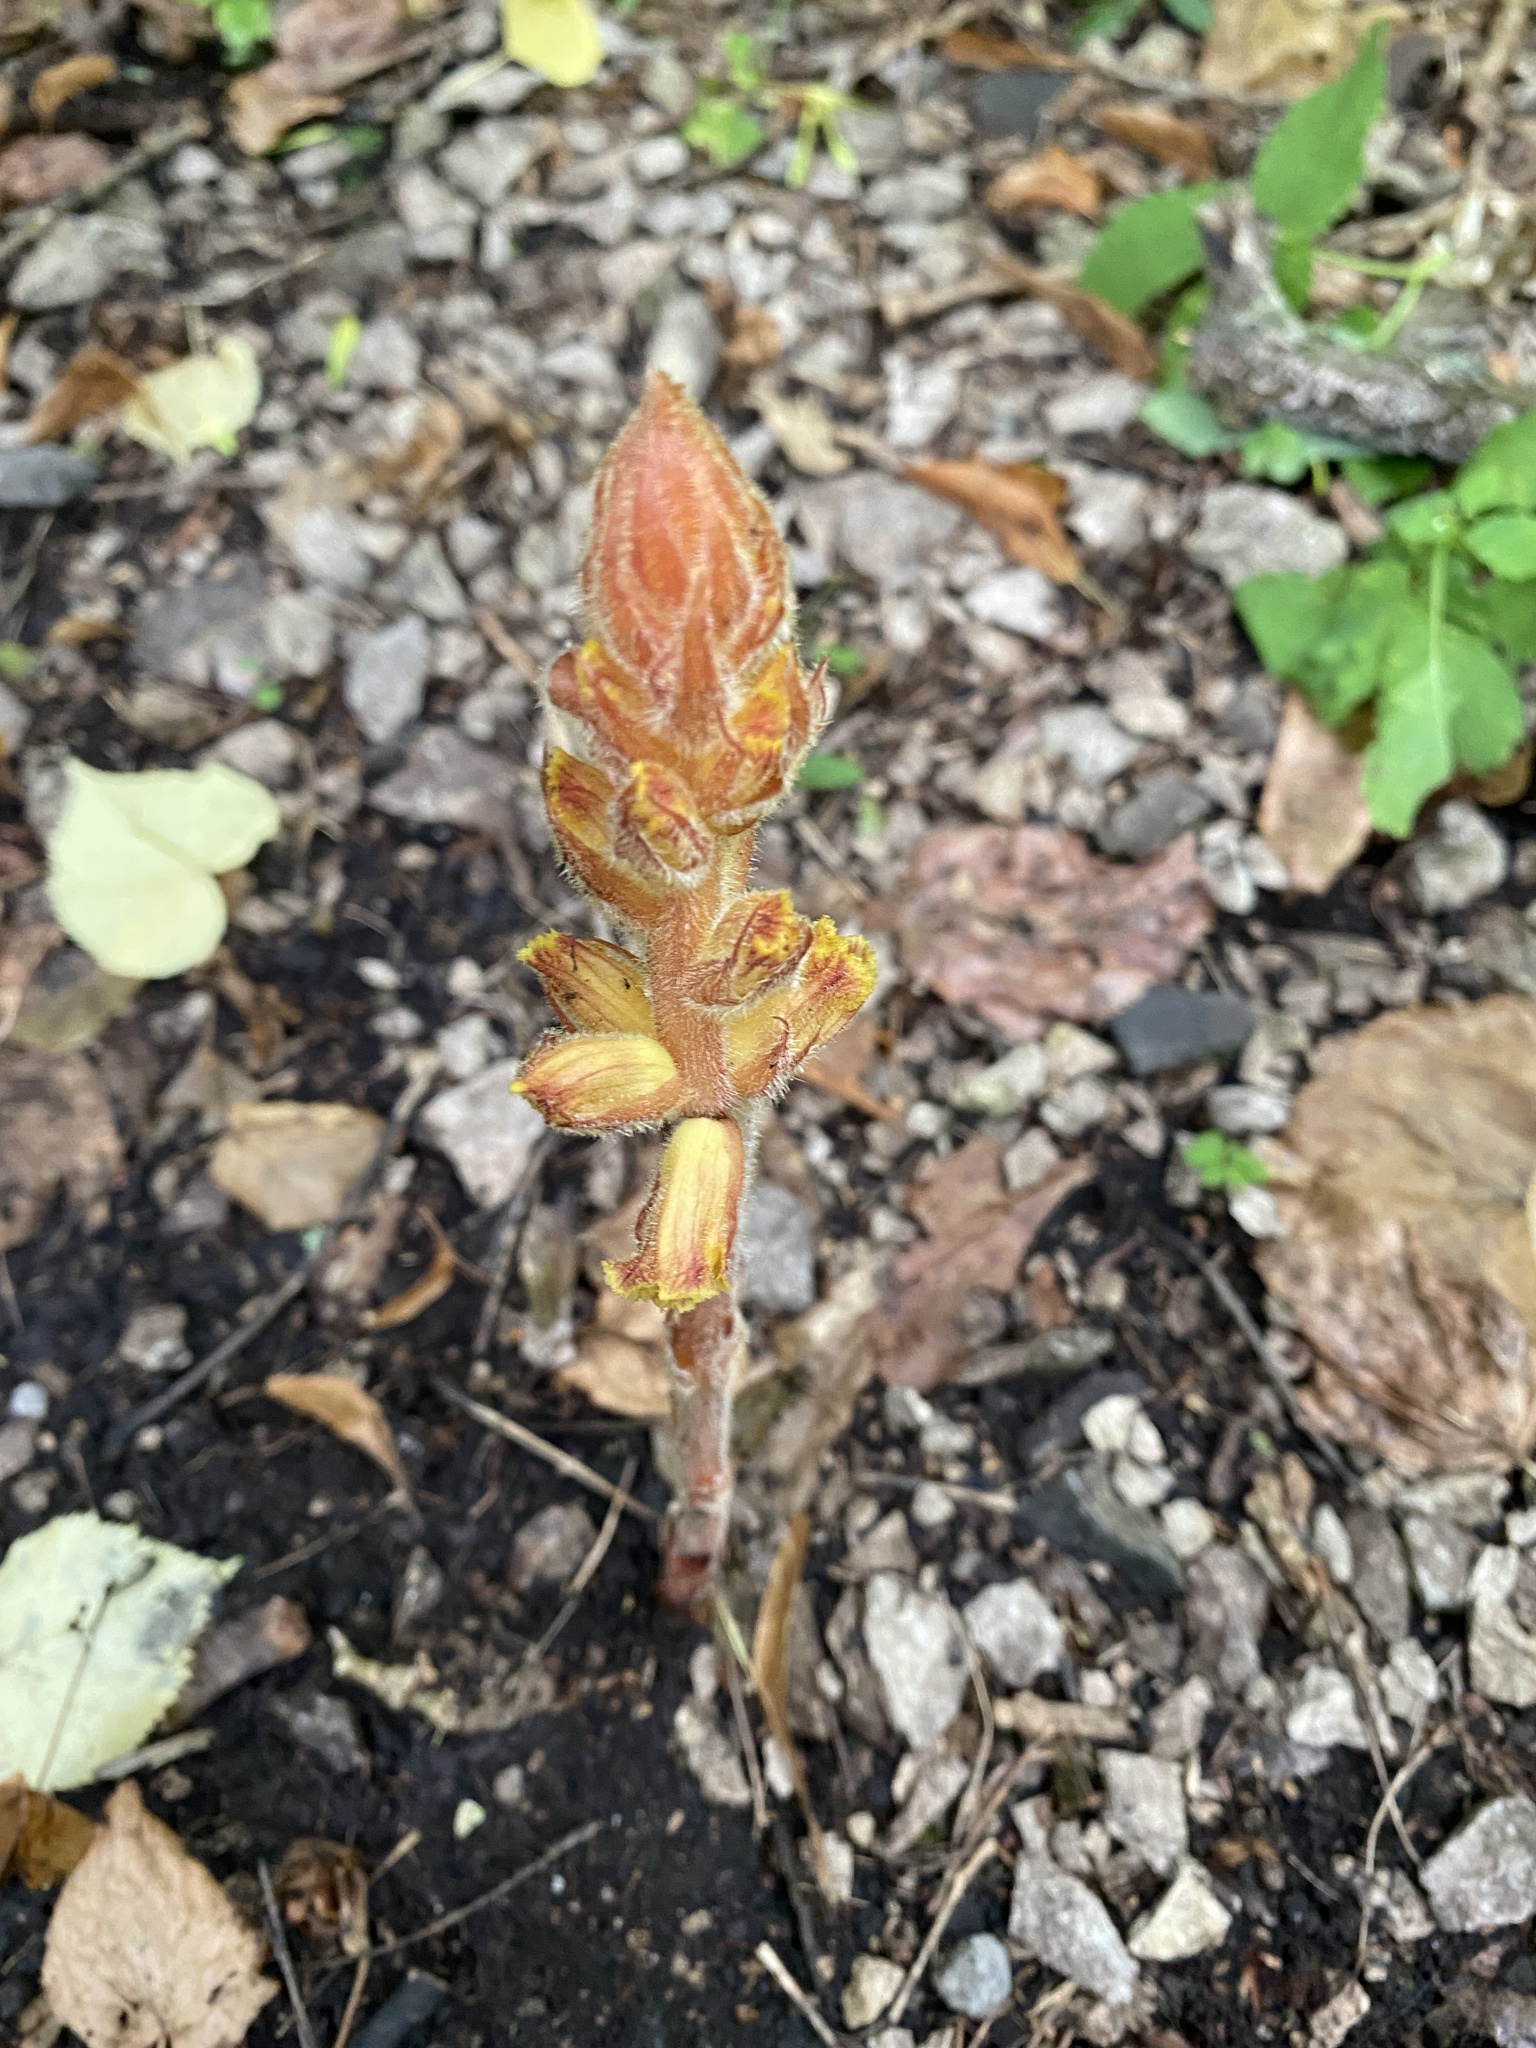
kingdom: Plantae
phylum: Tracheophyta
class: Magnoliopsida
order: Lamiales
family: Orobanchaceae
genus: Orobanche
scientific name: Orobanche laxissima
